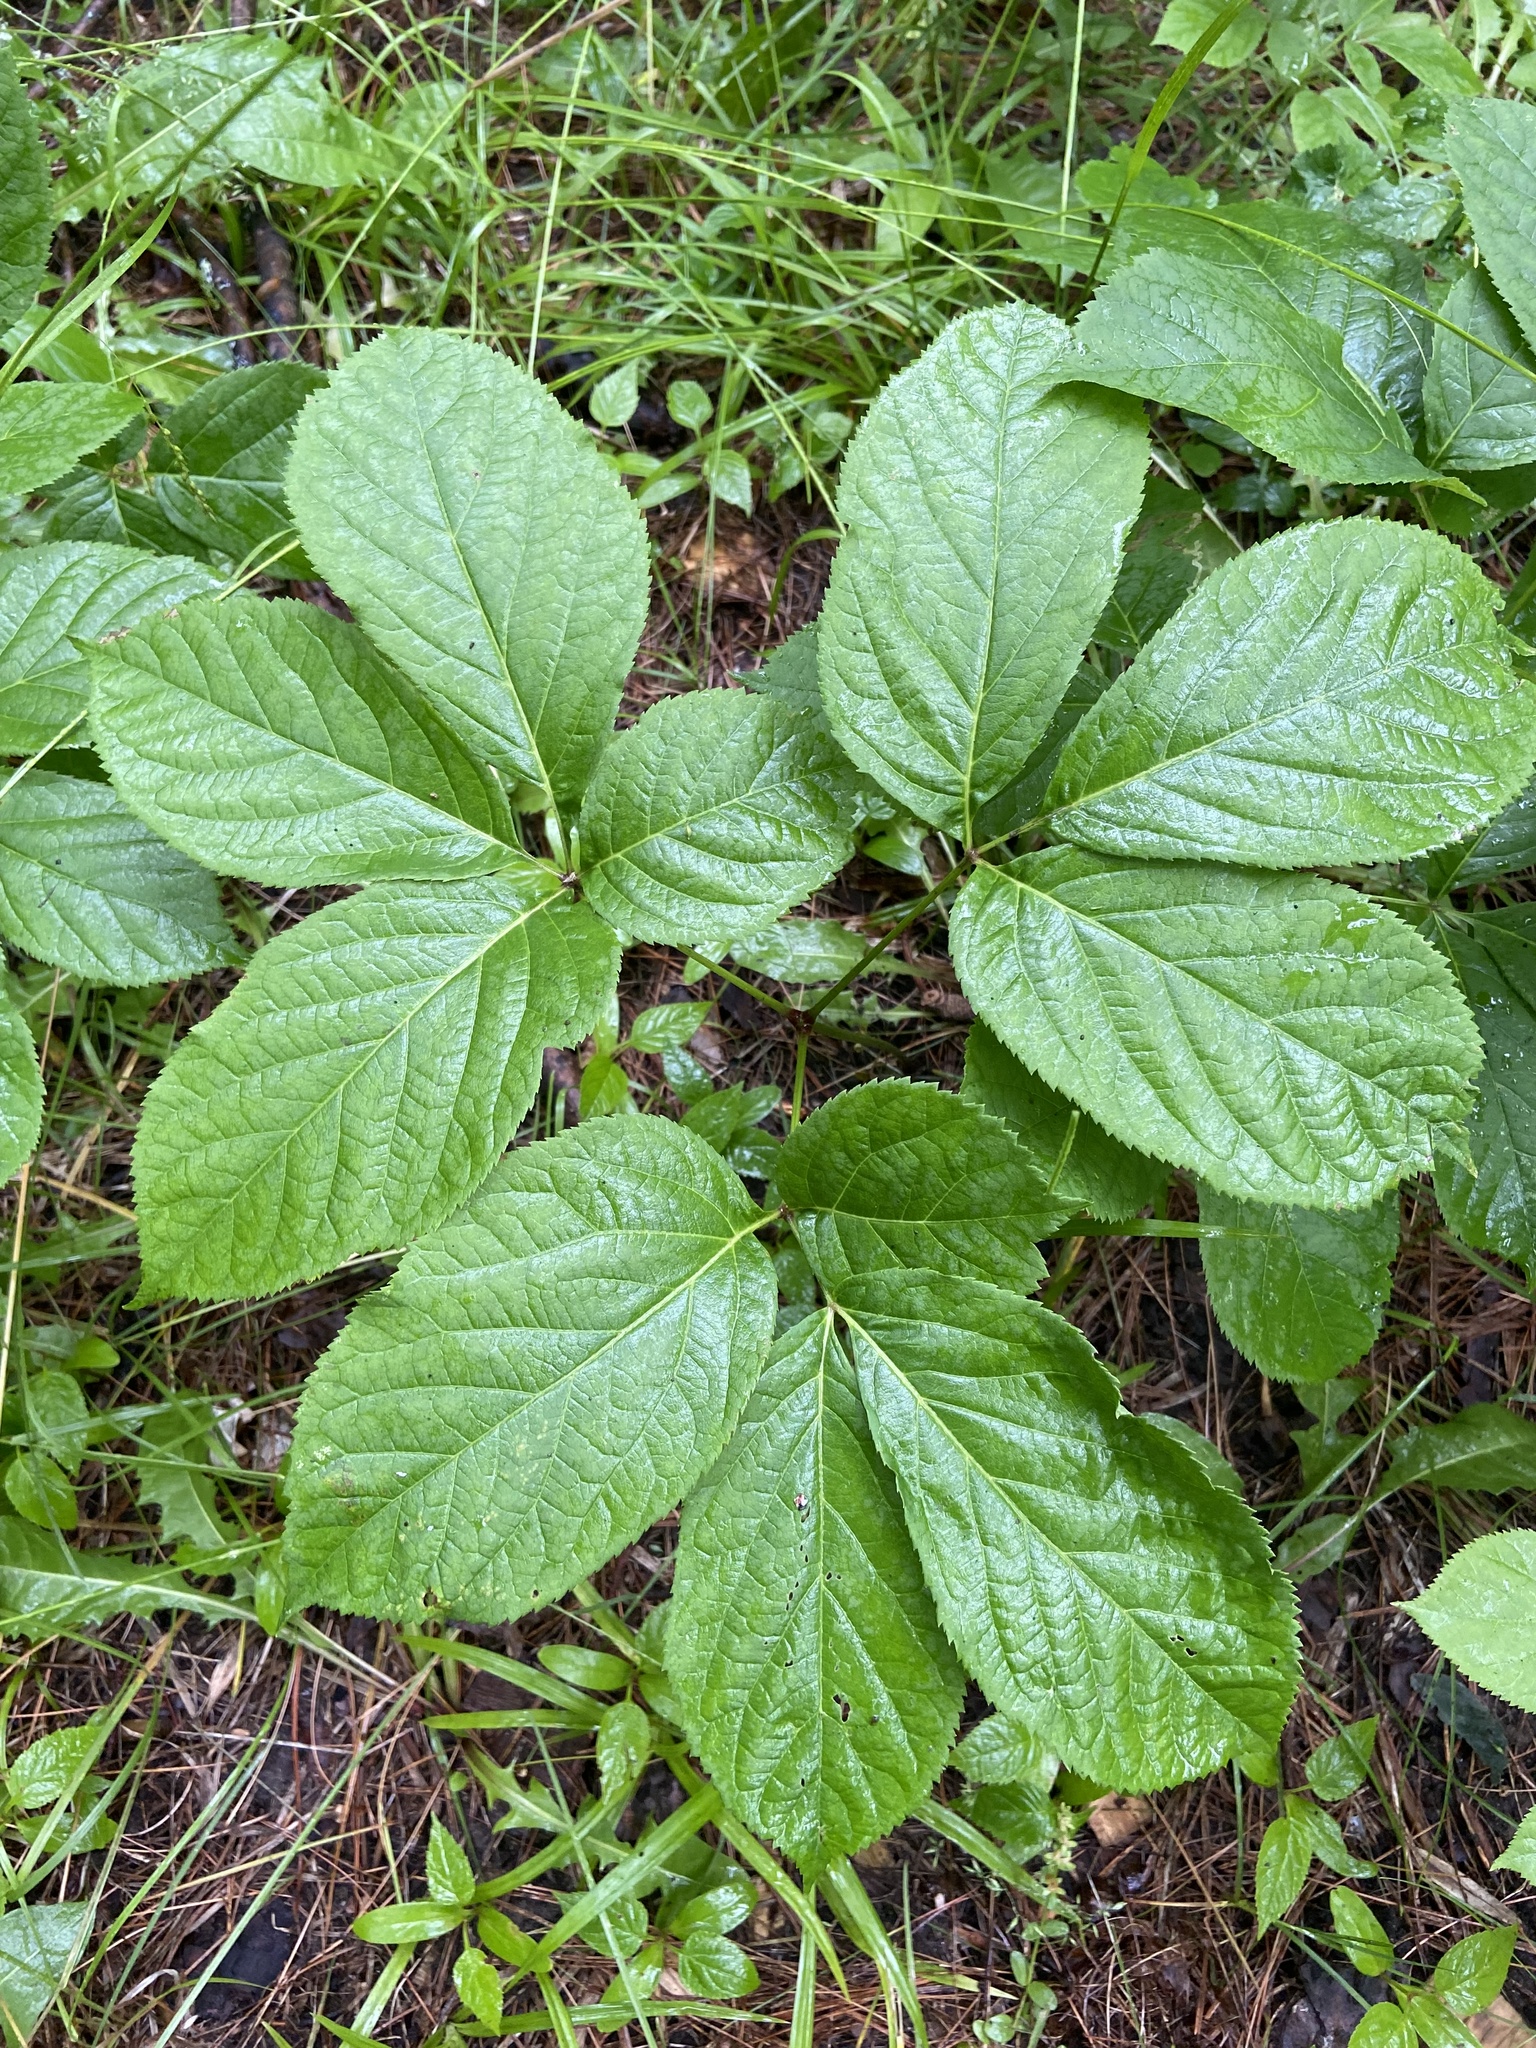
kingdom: Plantae
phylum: Tracheophyta
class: Magnoliopsida
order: Apiales
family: Araliaceae
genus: Aralia
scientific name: Aralia nudicaulis
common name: Wild sarsaparilla
